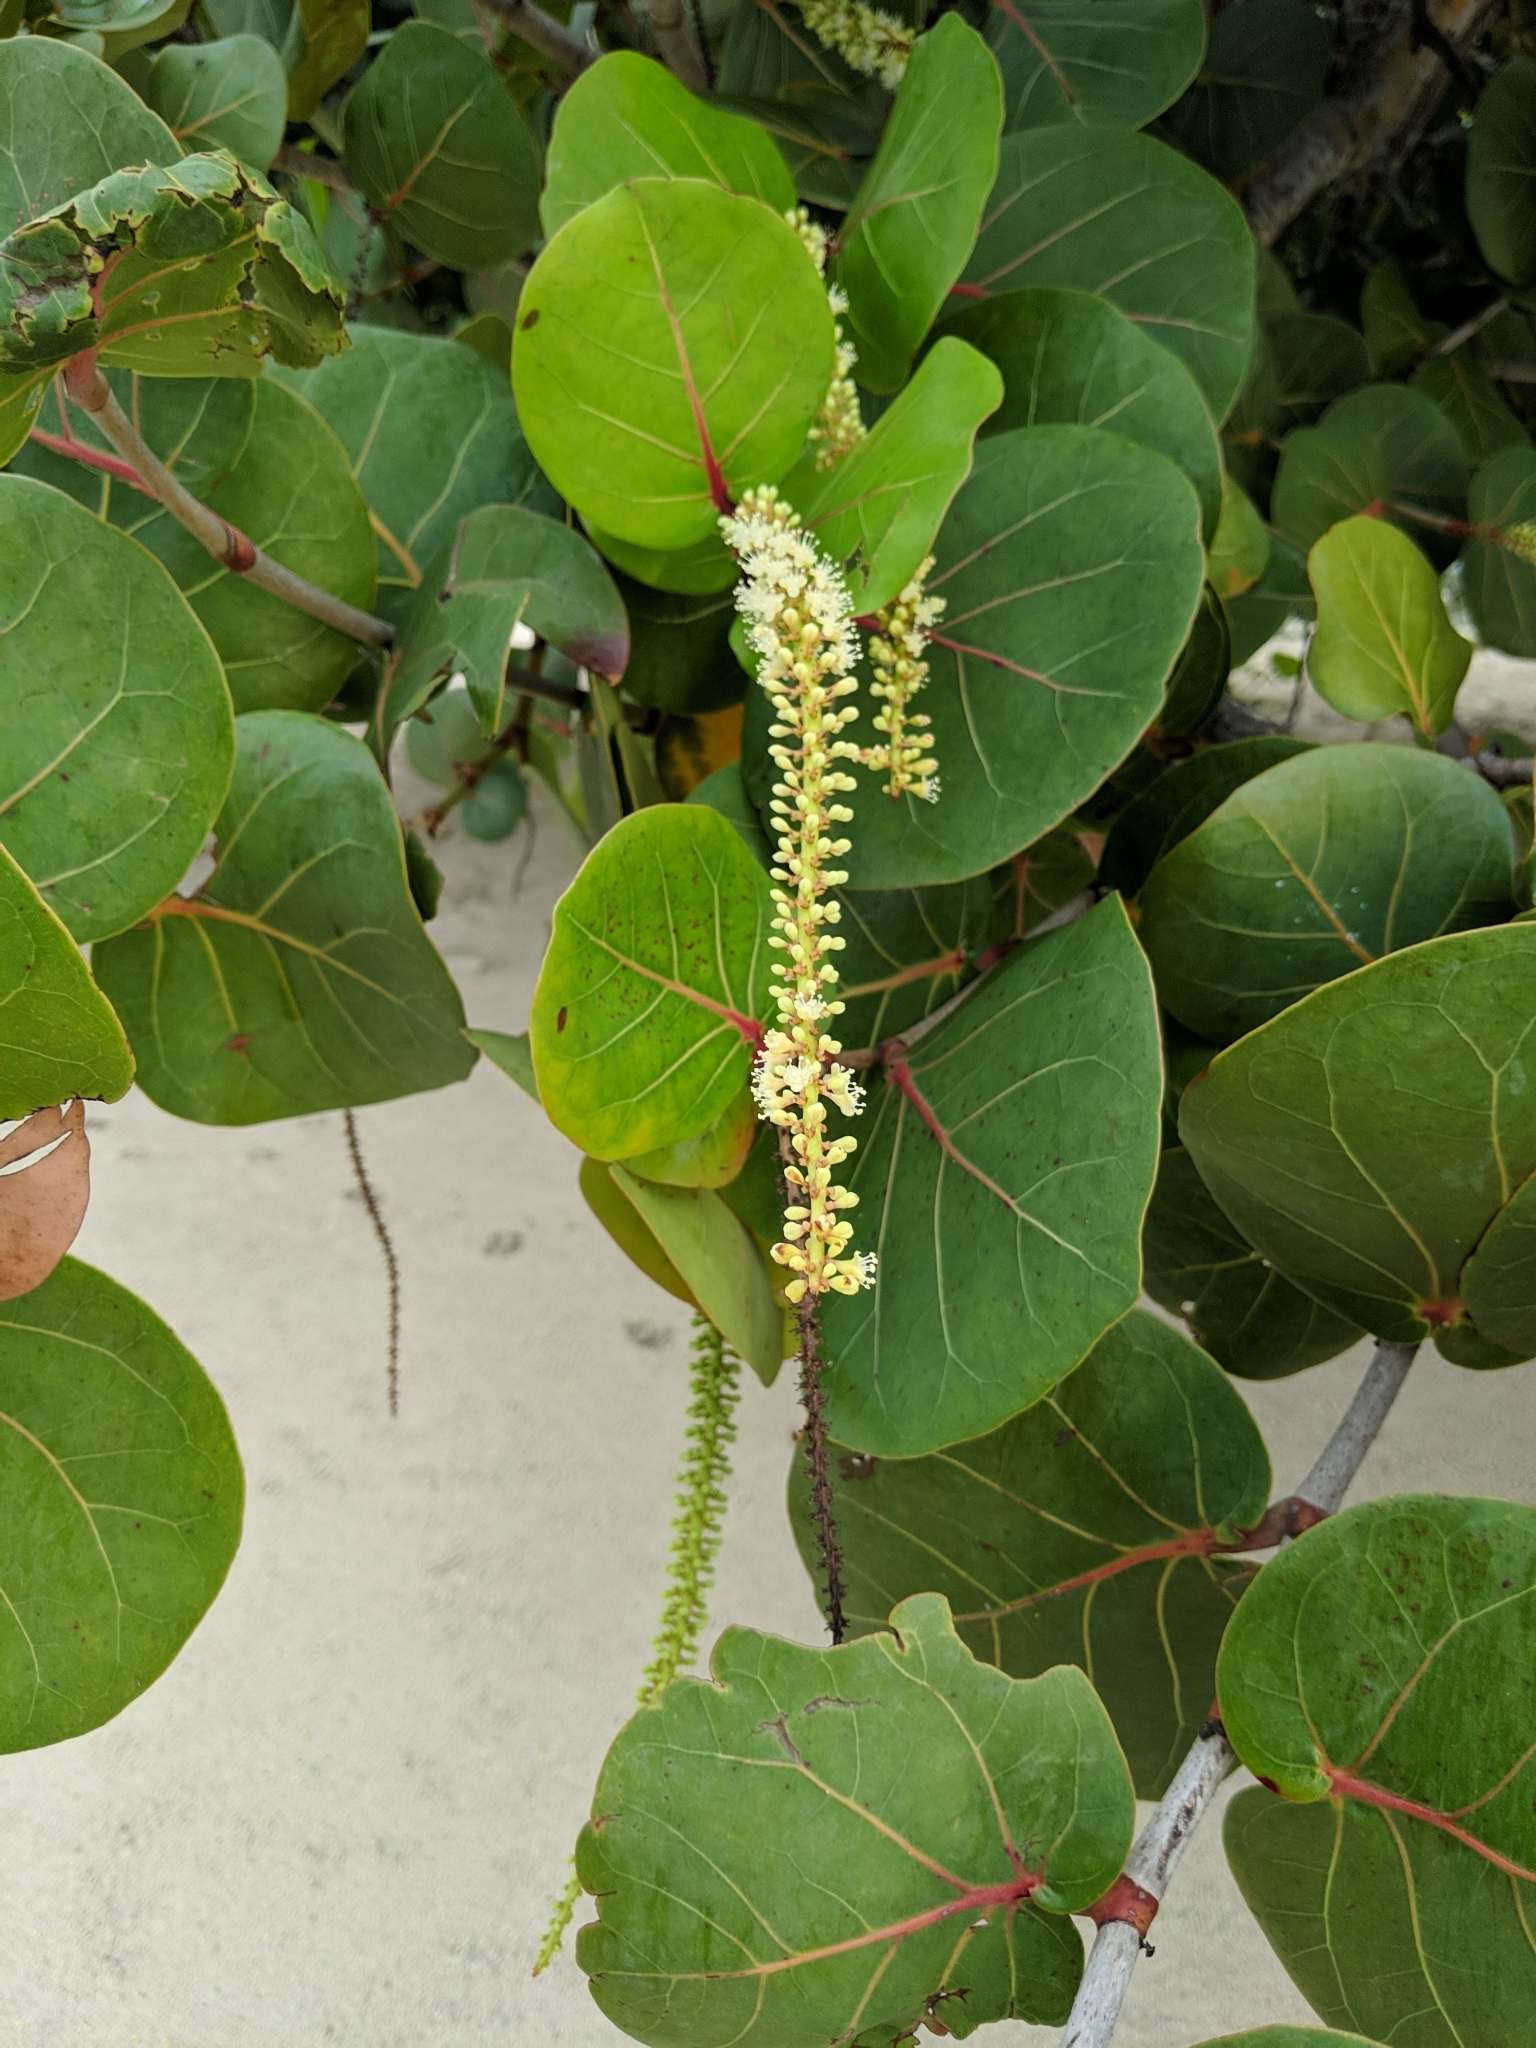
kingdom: Plantae
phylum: Tracheophyta
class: Magnoliopsida
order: Caryophyllales
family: Polygonaceae
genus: Coccoloba
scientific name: Coccoloba uvifera
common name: Seagrape
